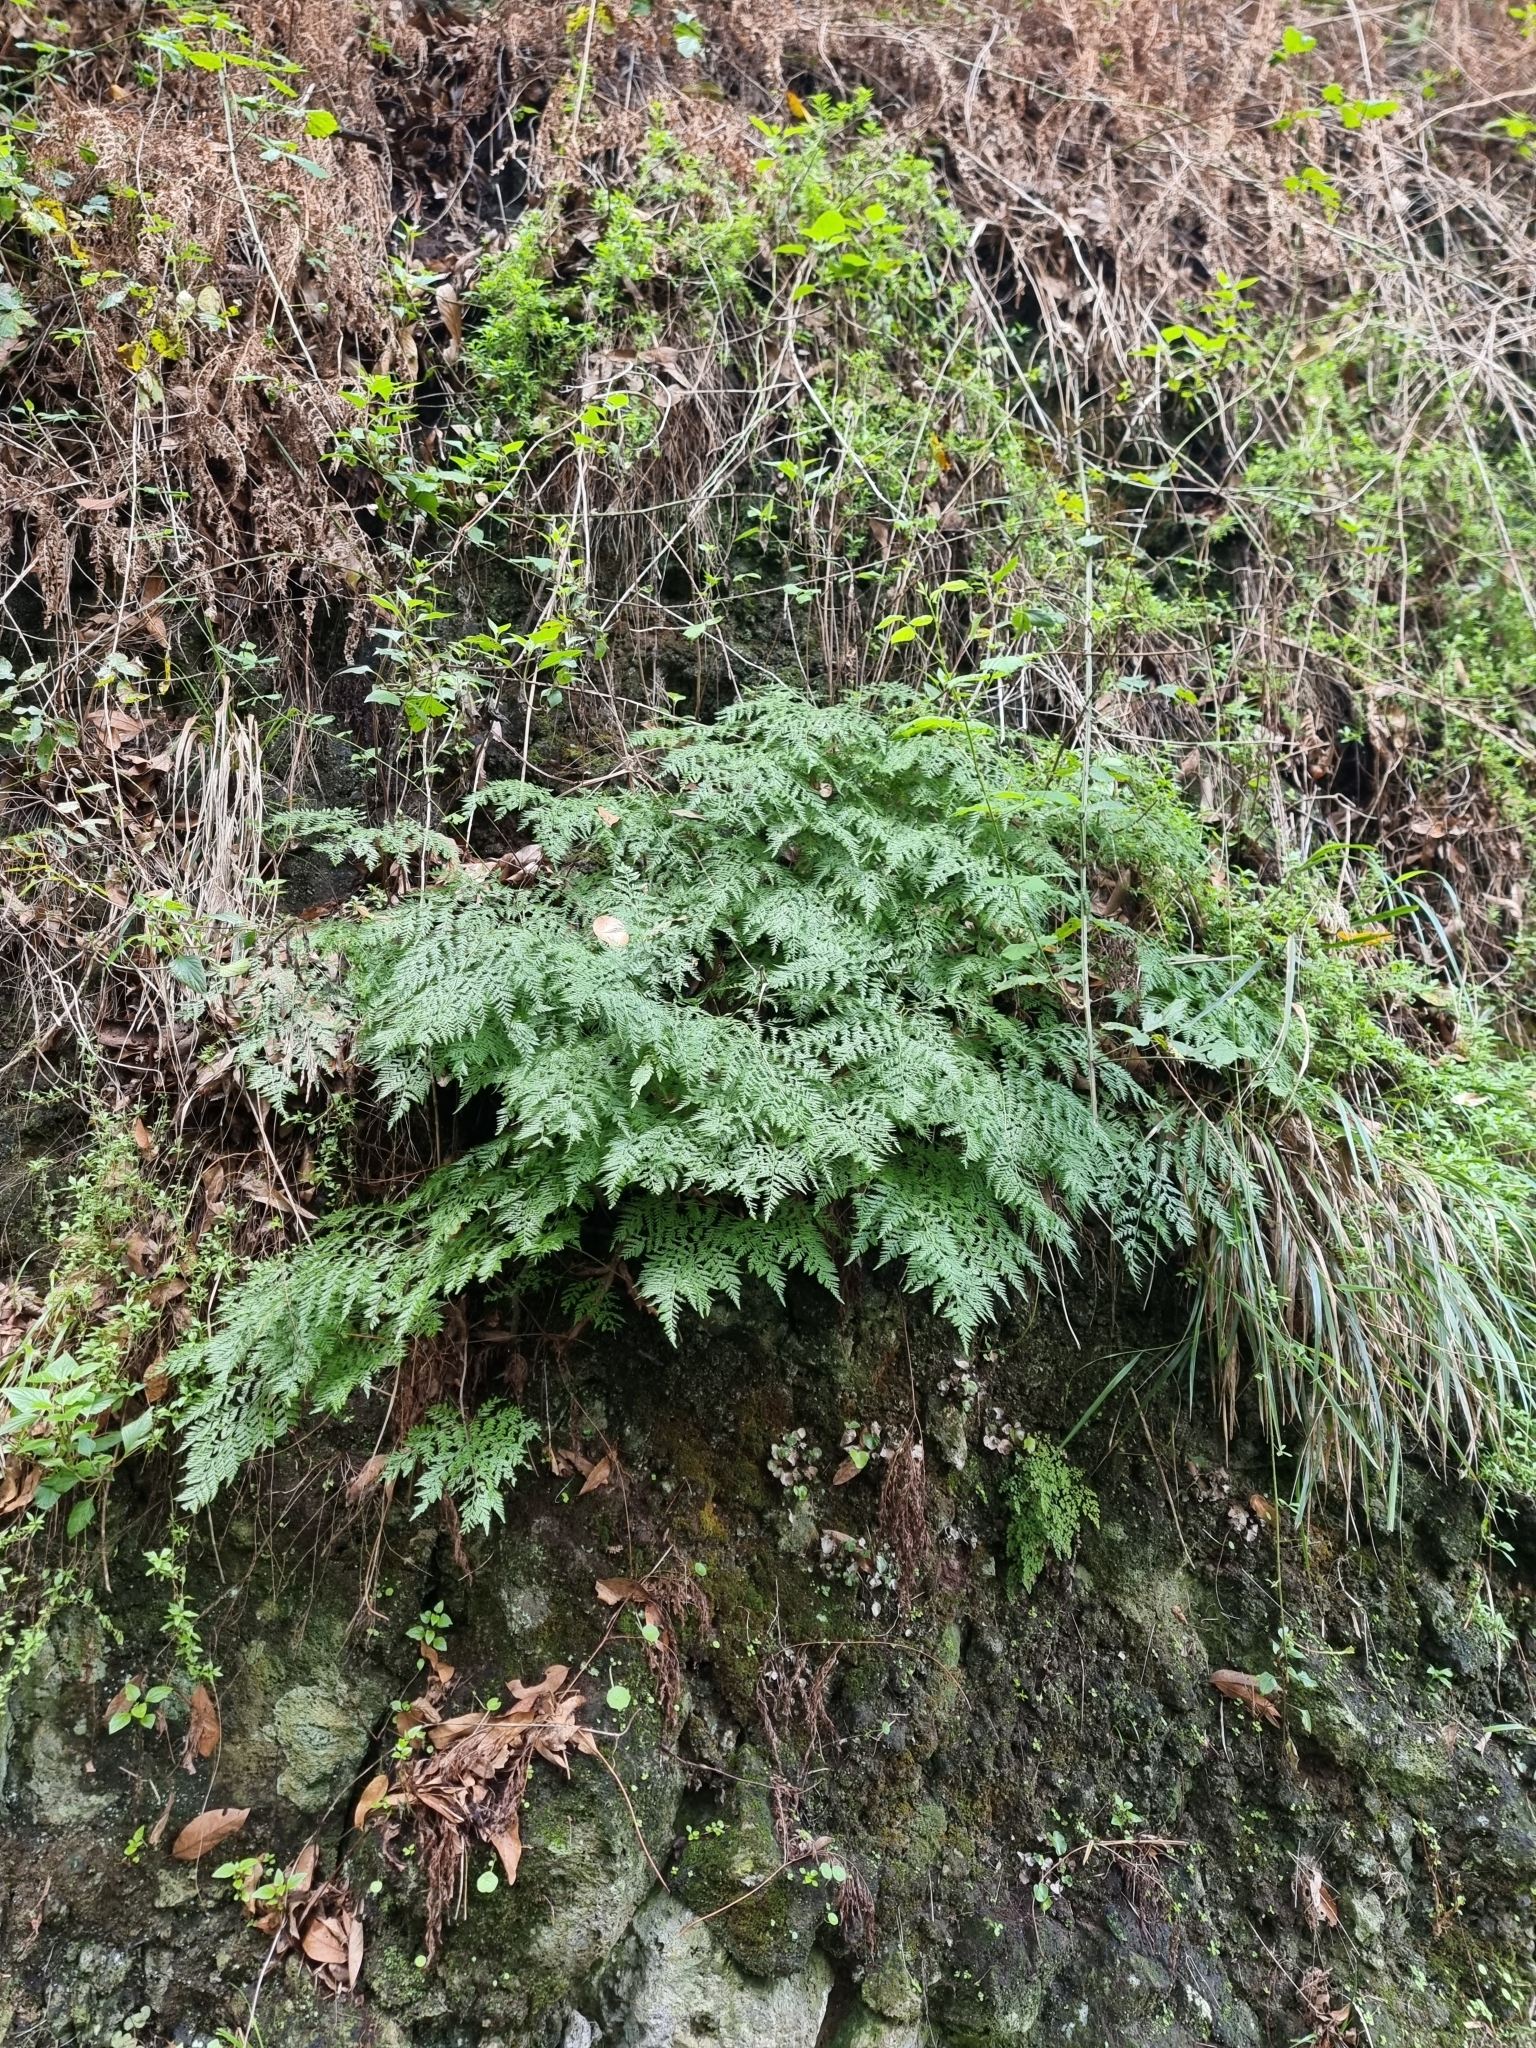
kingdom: Plantae
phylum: Tracheophyta
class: Polypodiopsida
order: Polypodiales
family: Davalliaceae
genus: Davallia
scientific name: Davallia canariensis
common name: Hare's-foot fern
